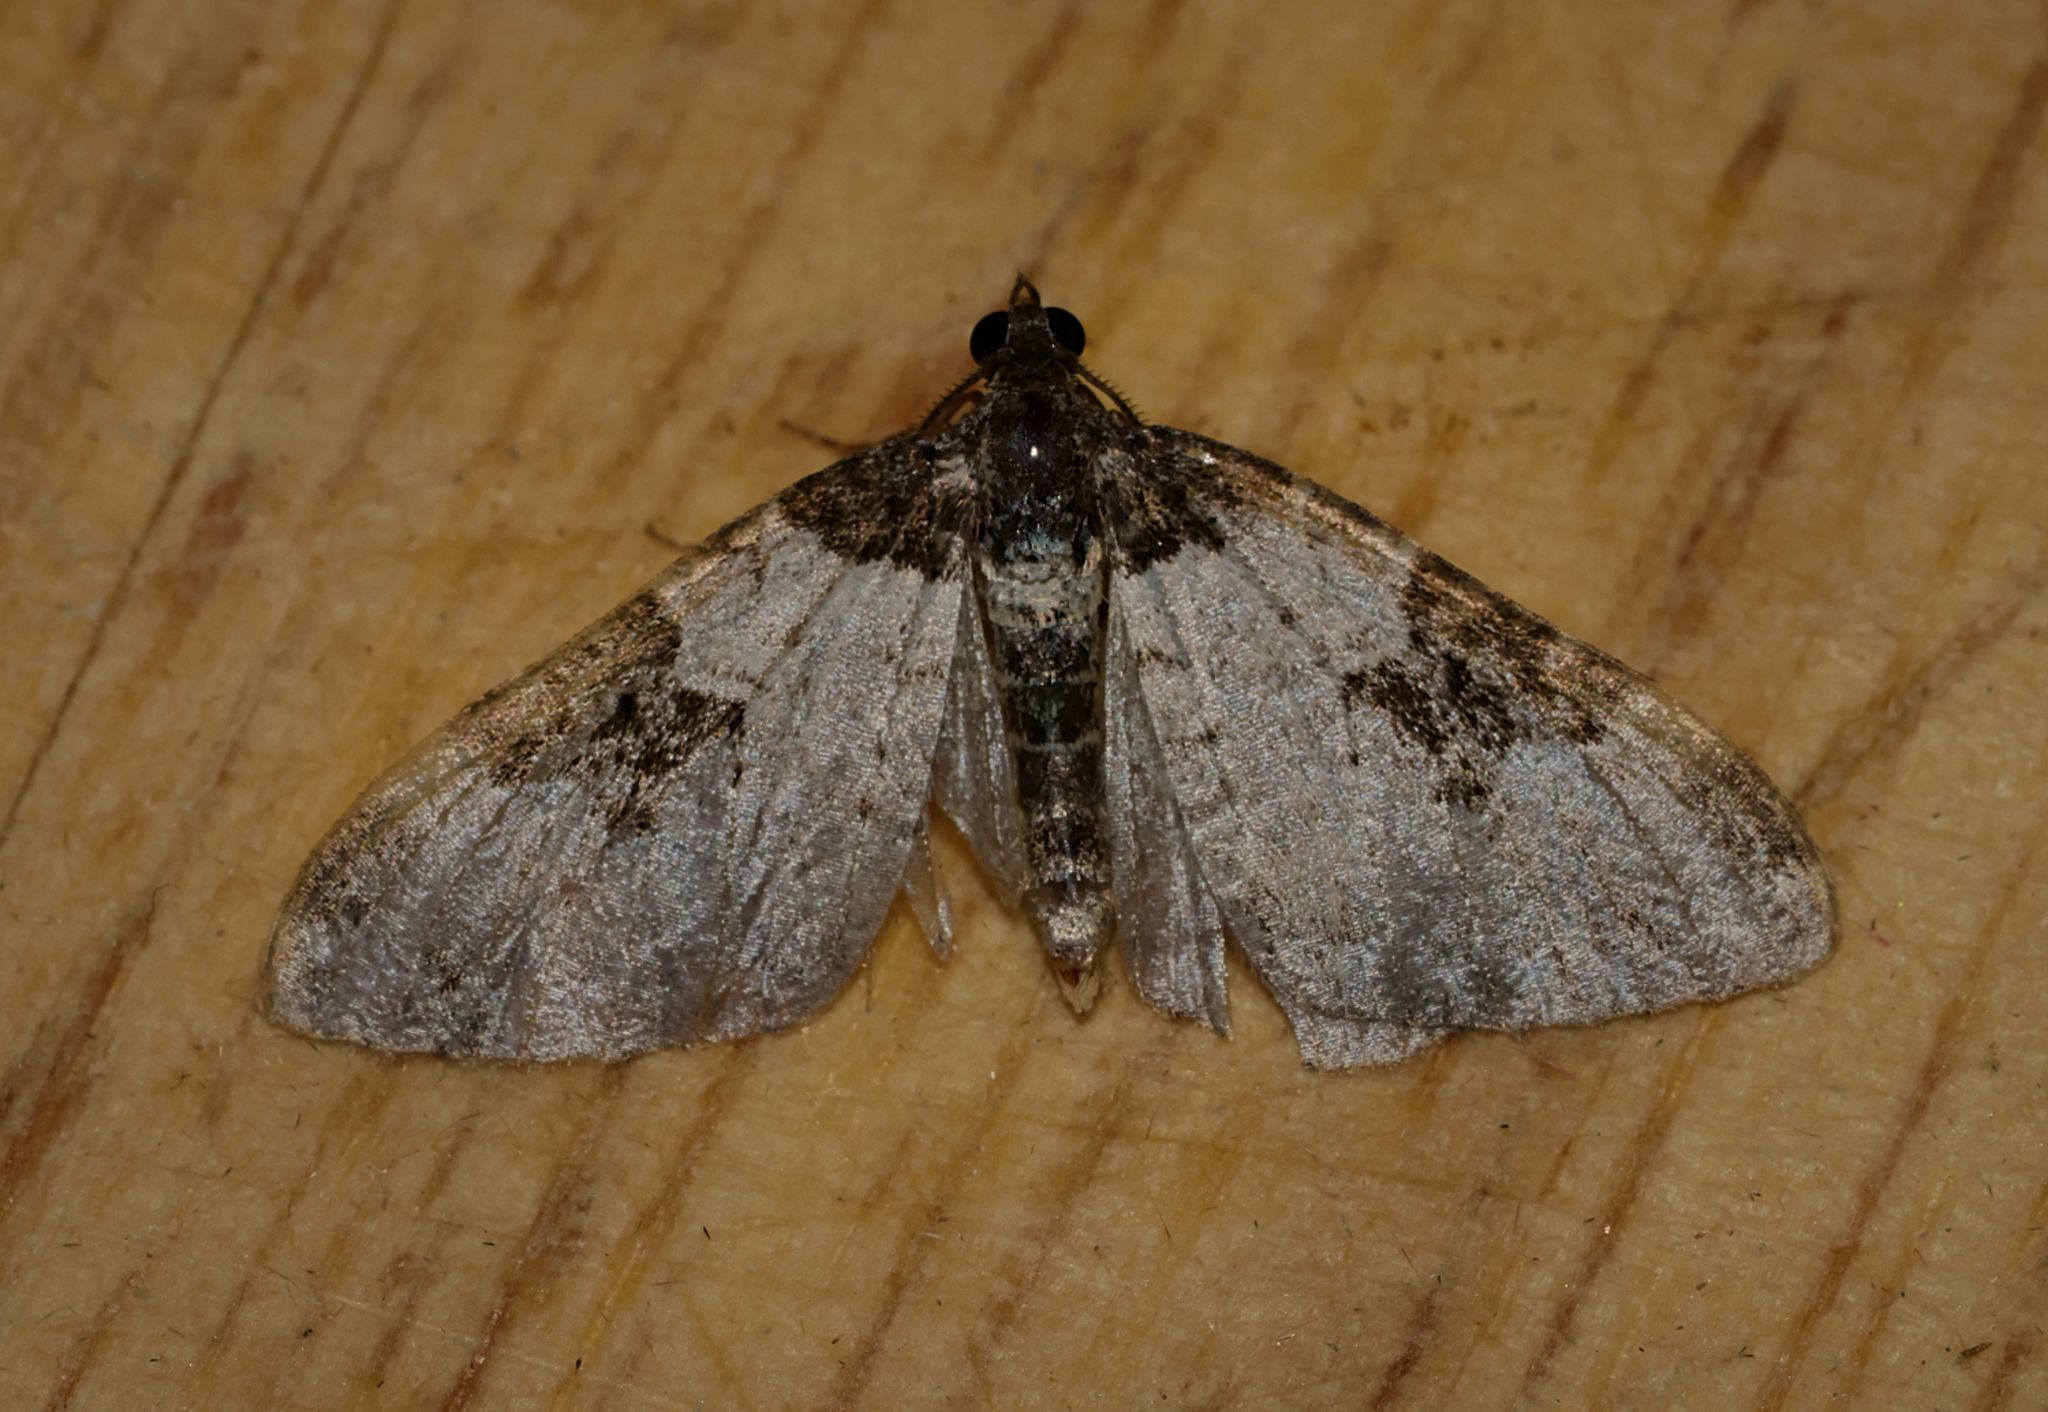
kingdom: Animalia
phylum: Arthropoda
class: Insecta
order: Lepidoptera
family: Geometridae
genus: Xanthorhoe
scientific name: Xanthorhoe fluctuata
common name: Garden carpet
